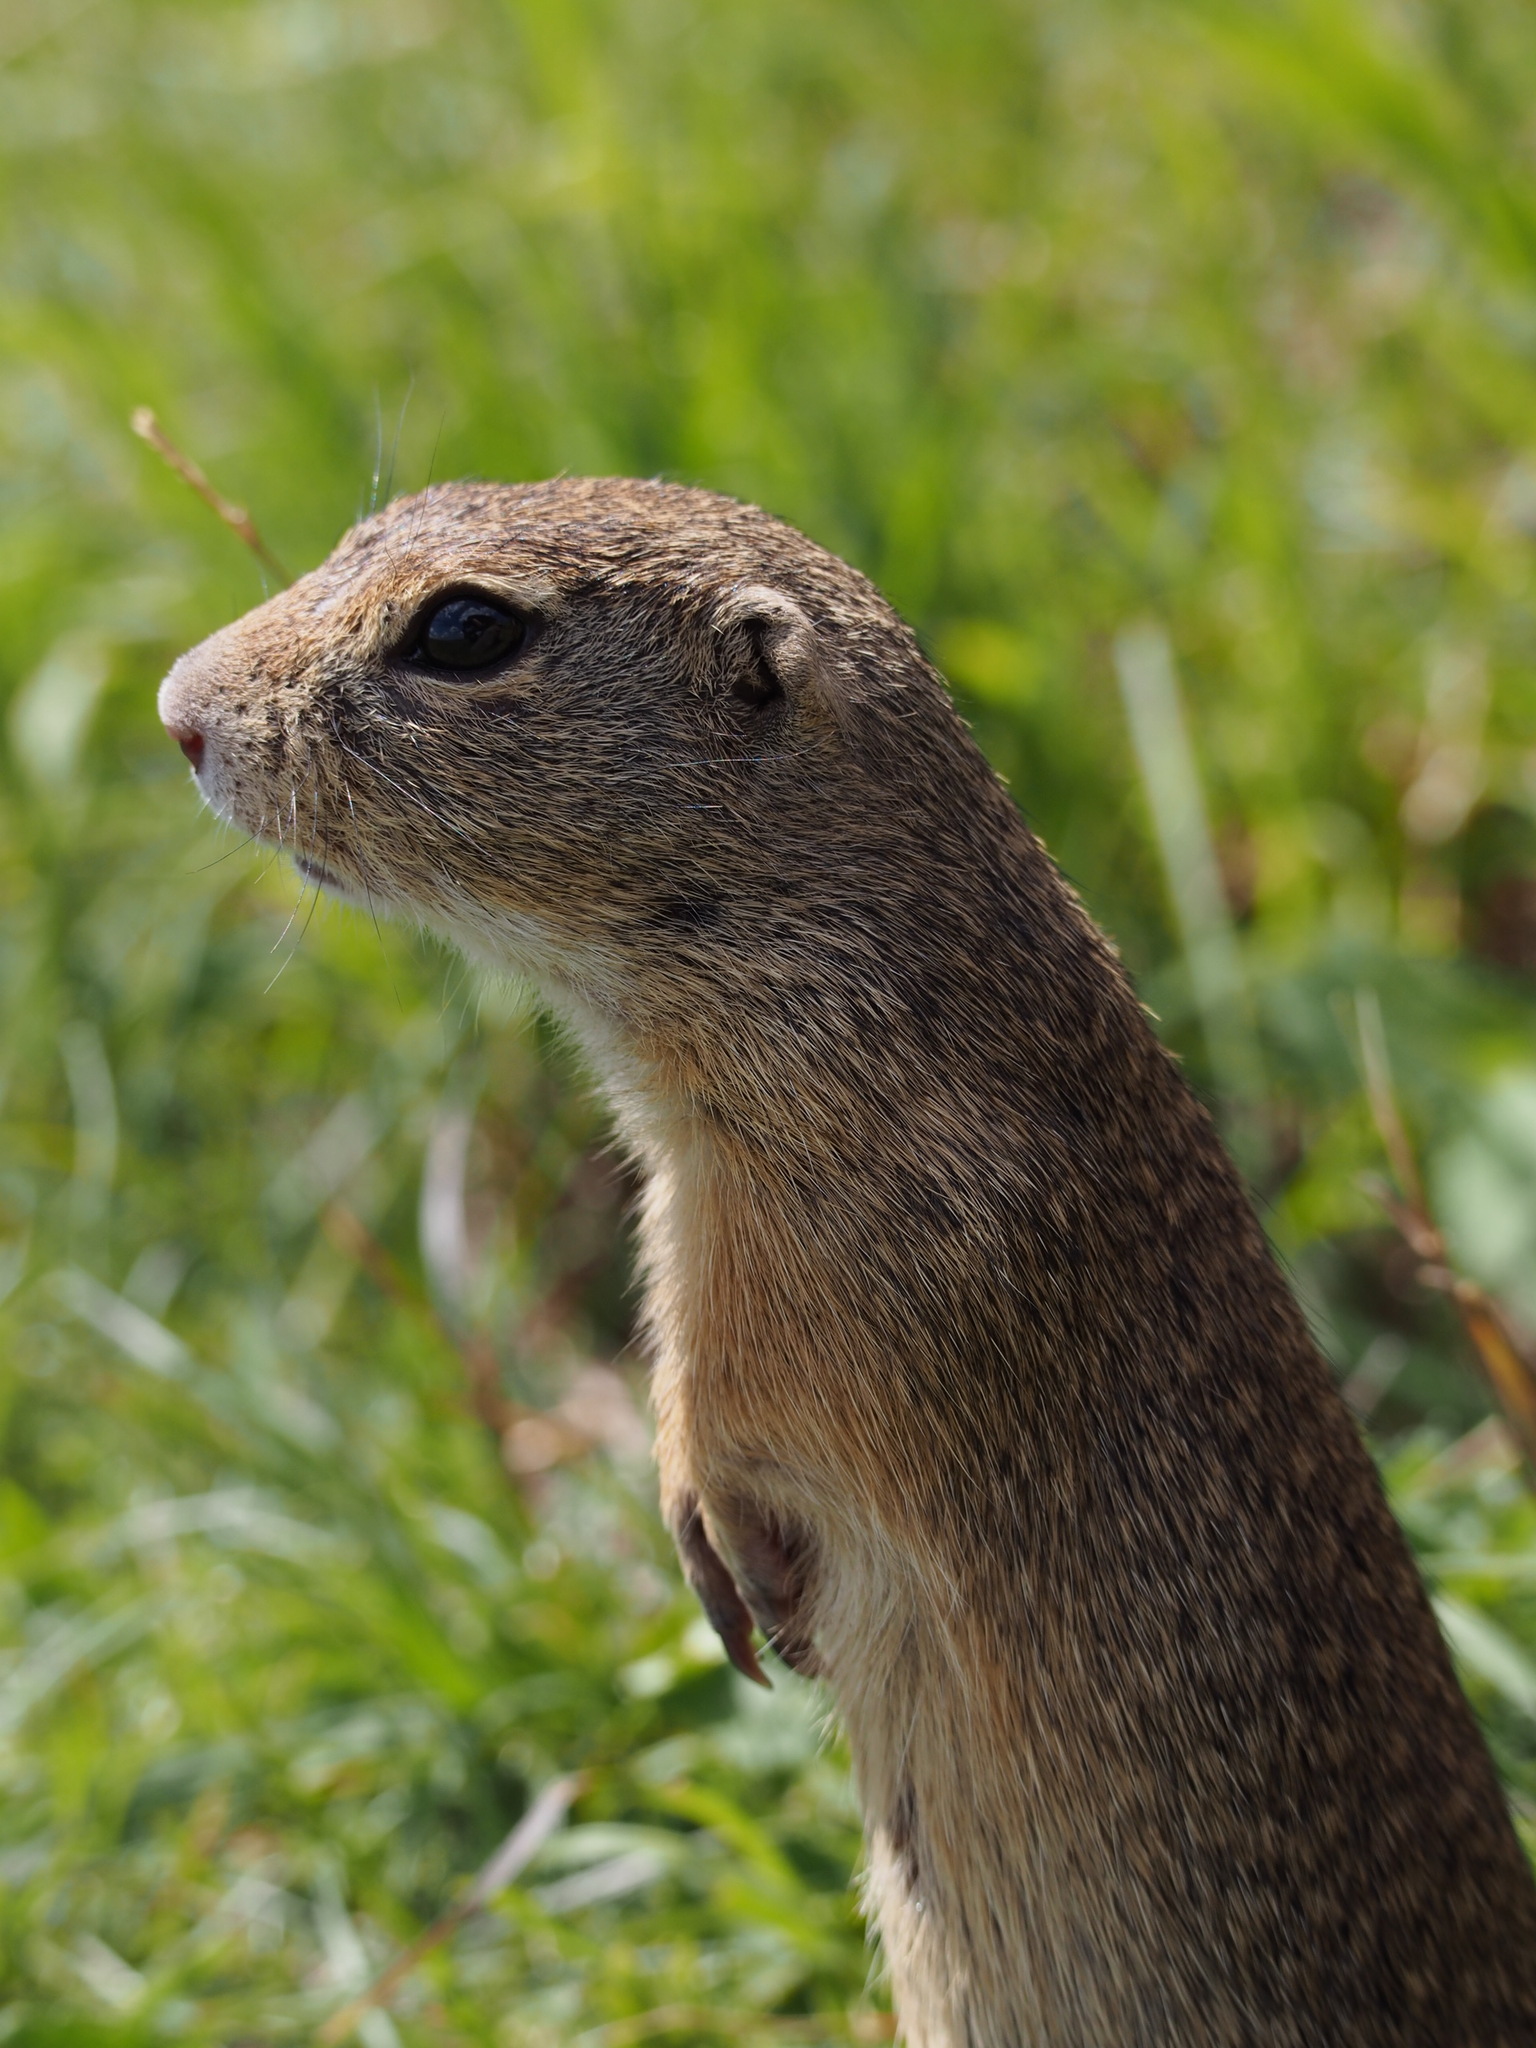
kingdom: Animalia
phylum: Chordata
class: Mammalia
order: Rodentia
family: Sciuridae
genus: Spermophilus
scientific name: Spermophilus citellus
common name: European ground squirrel
